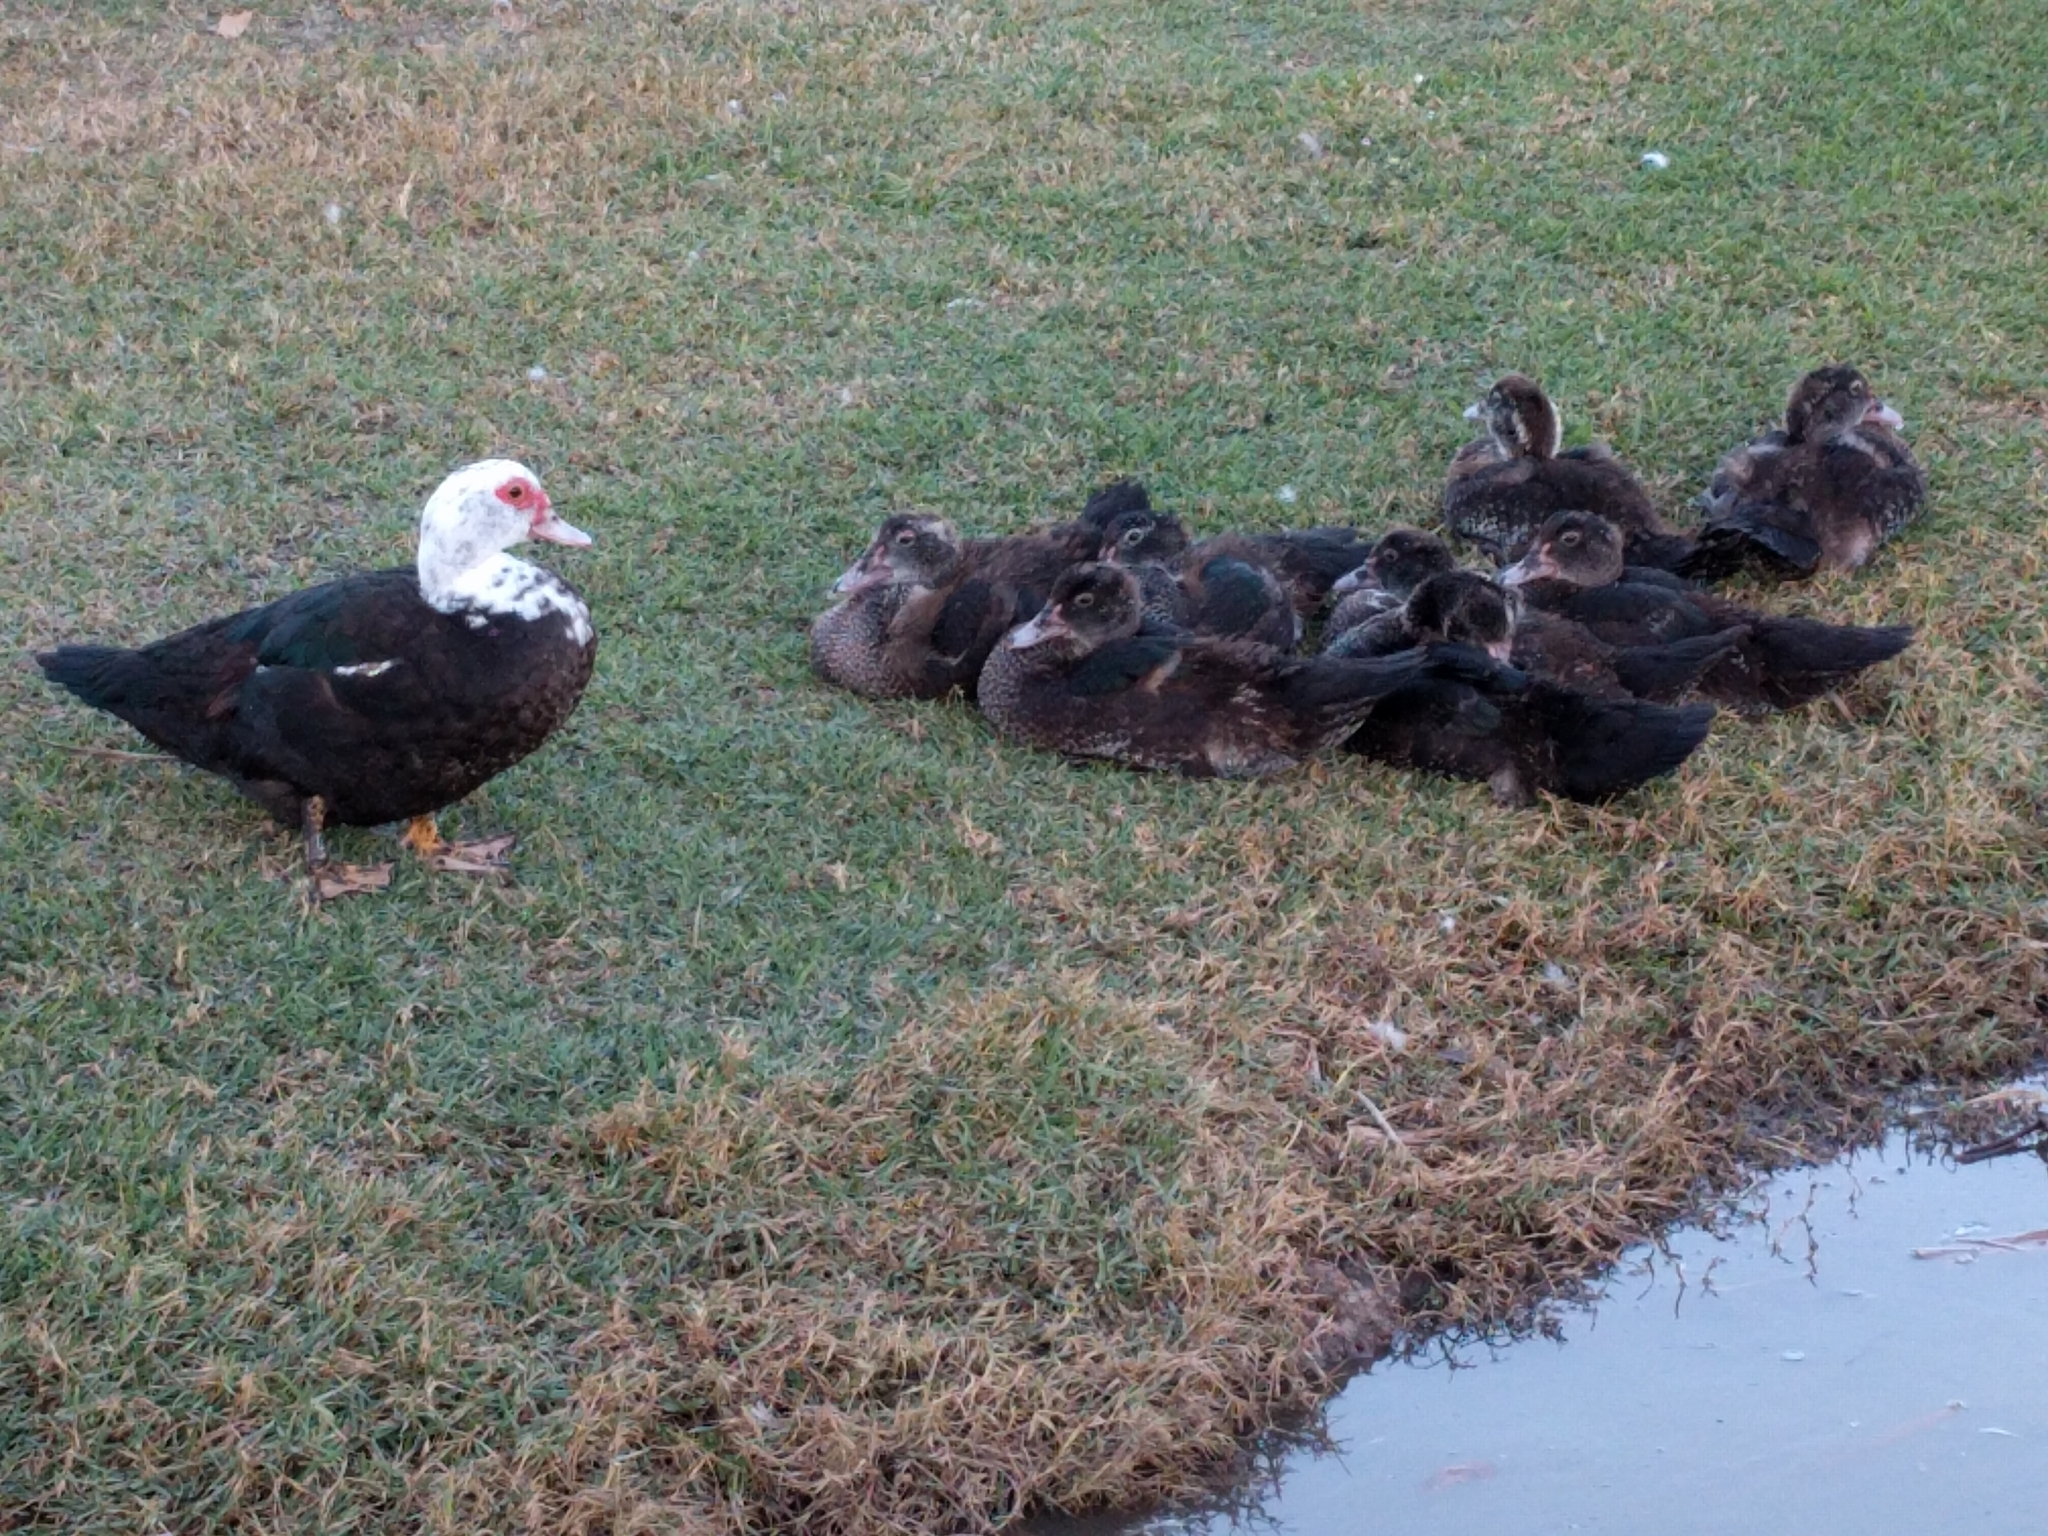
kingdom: Animalia
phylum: Chordata
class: Aves
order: Anseriformes
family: Anatidae
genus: Cairina
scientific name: Cairina moschata
